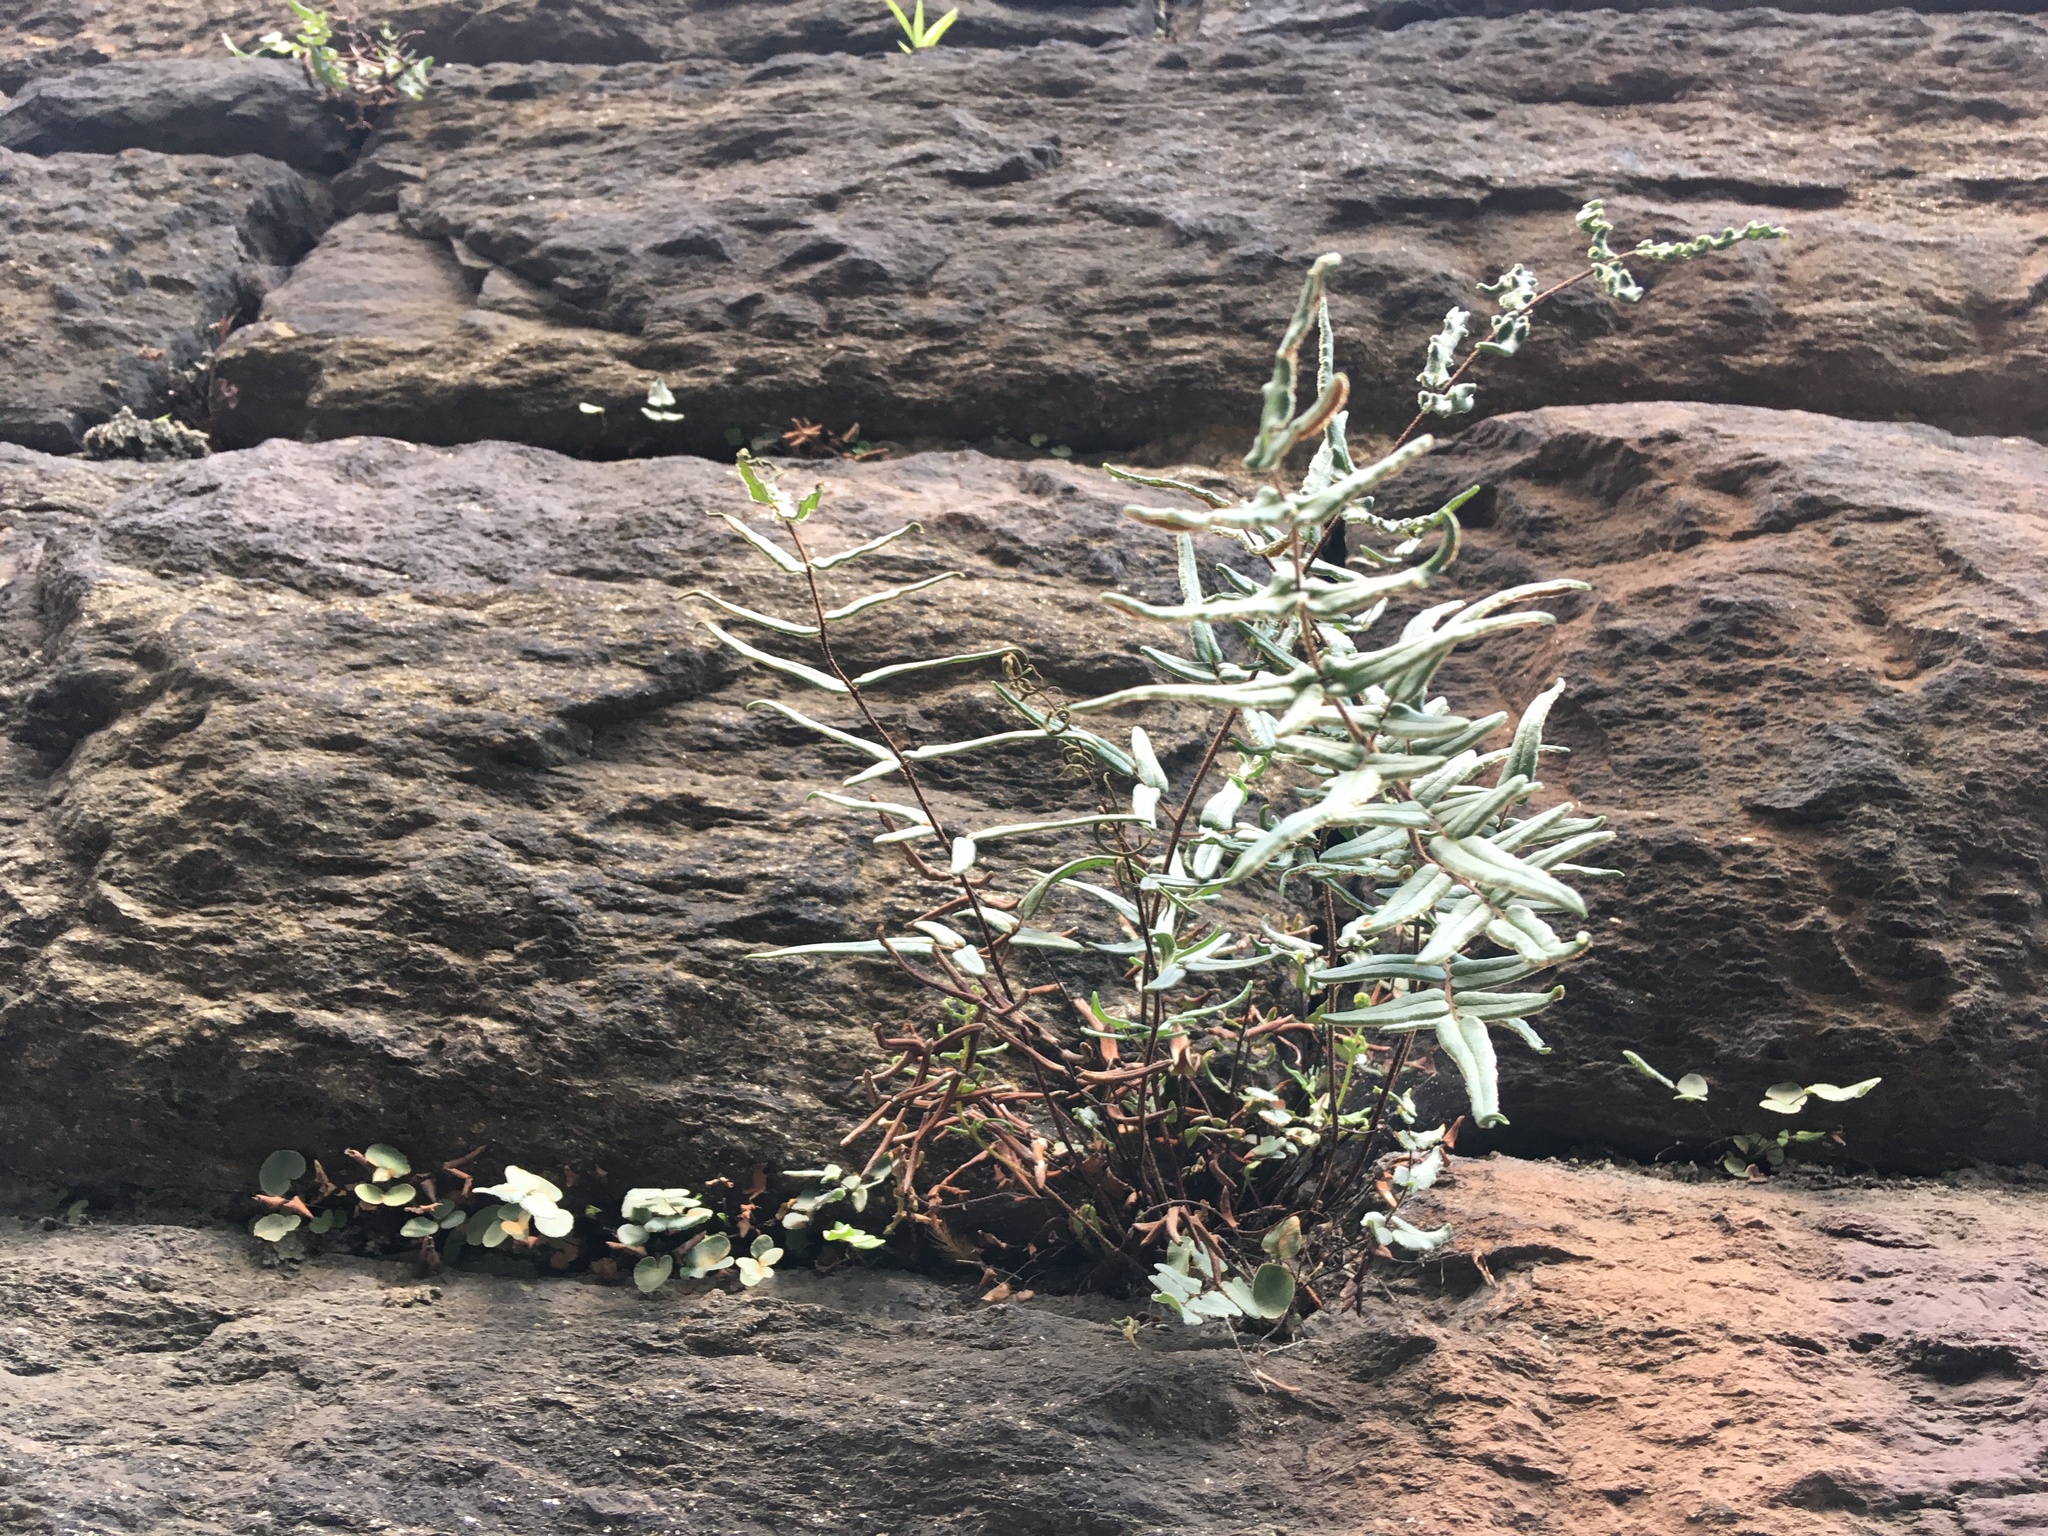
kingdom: Plantae
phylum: Tracheophyta
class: Polypodiopsida
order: Polypodiales
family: Pteridaceae
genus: Pellaea
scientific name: Pellaea atropurpurea
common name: Hairy cliffbrake
